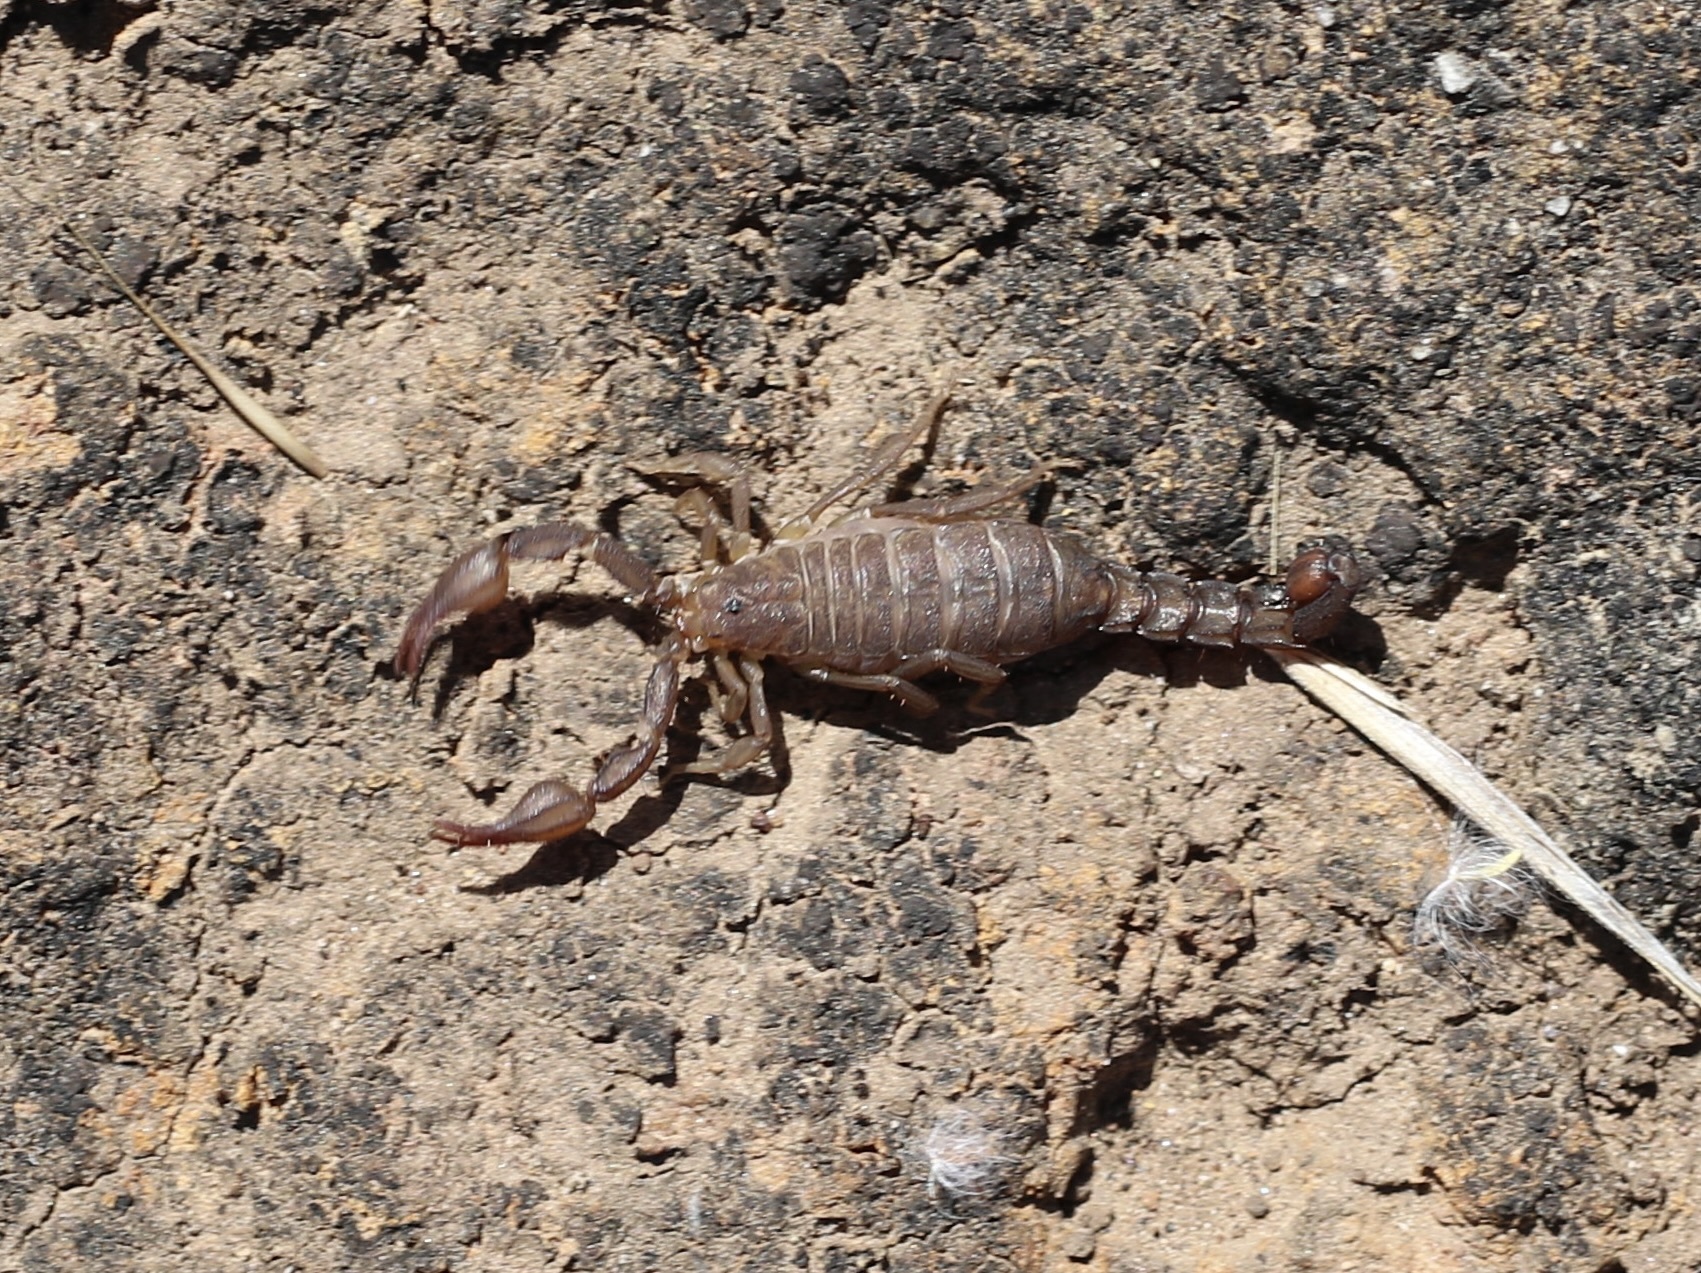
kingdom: Animalia
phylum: Arthropoda
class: Arachnida
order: Scorpiones
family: Vaejovidae
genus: Catalinia
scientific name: Catalinia thompsoni
